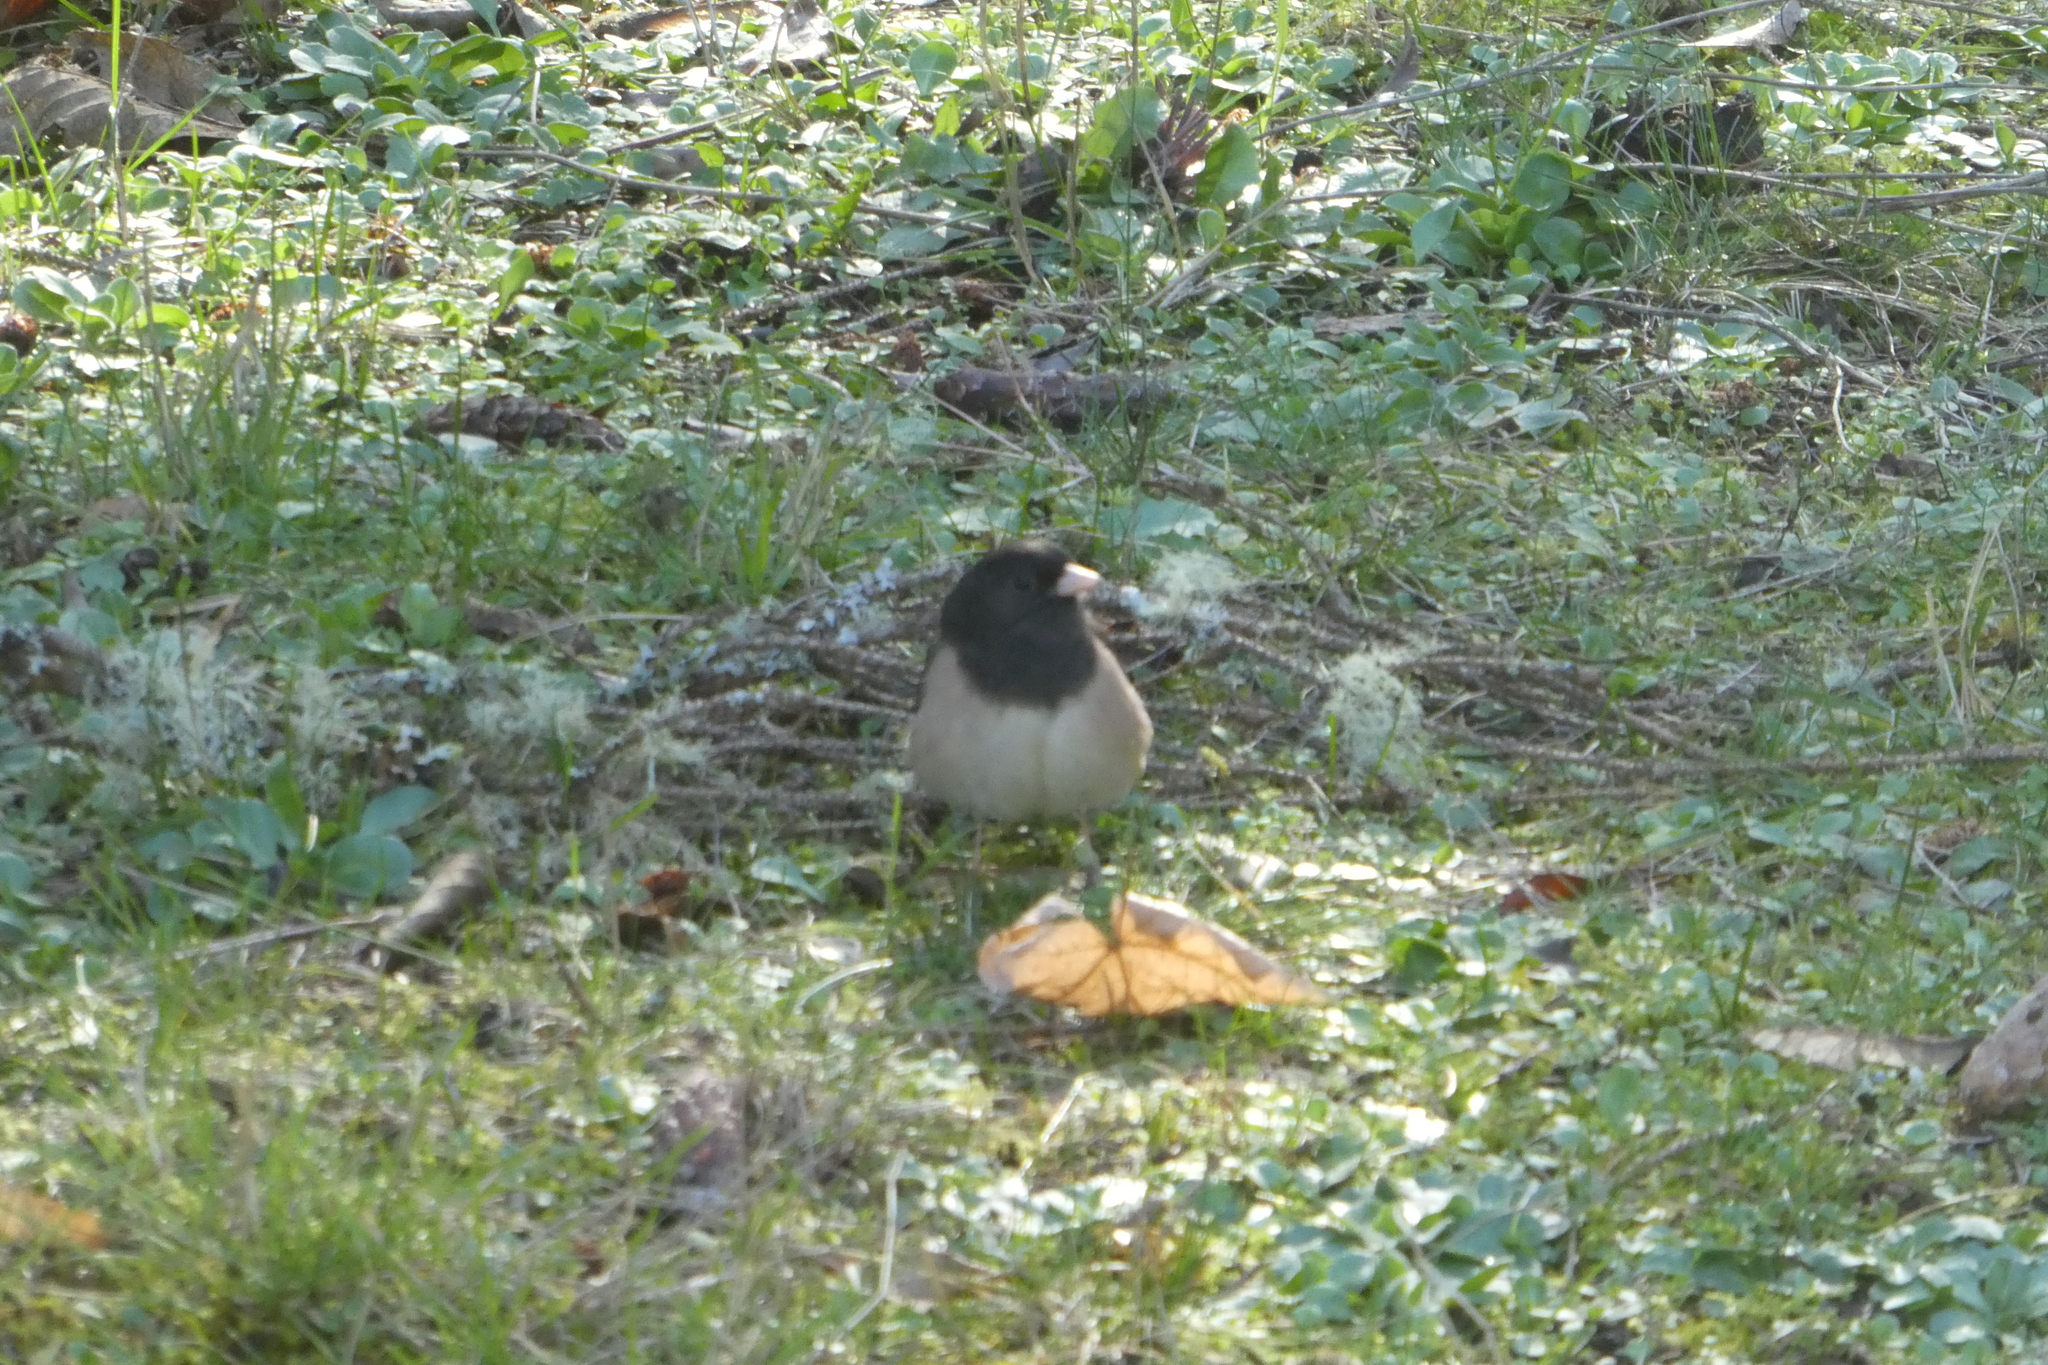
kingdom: Animalia
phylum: Chordata
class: Aves
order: Passeriformes
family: Passerellidae
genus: Junco
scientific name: Junco hyemalis
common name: Dark-eyed junco
